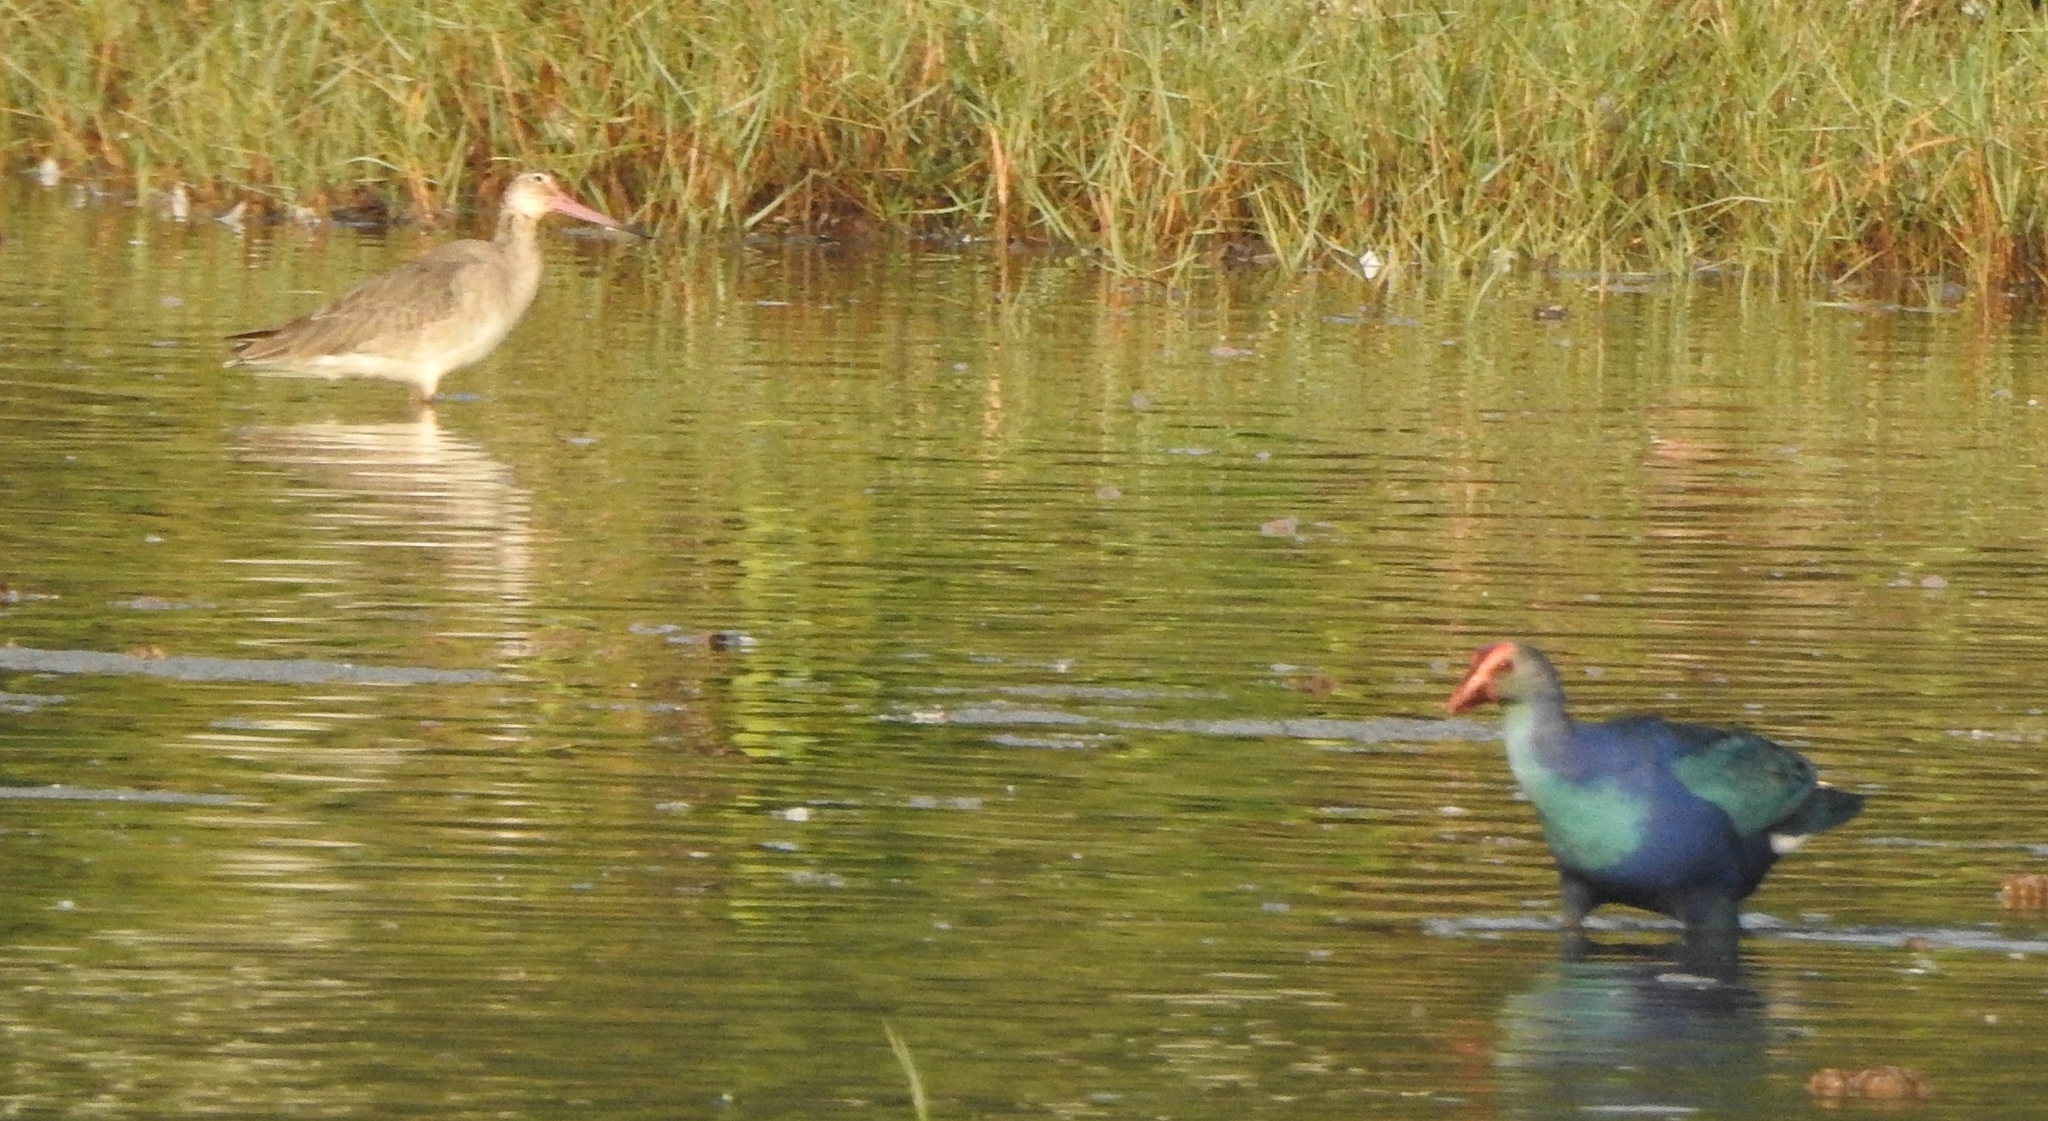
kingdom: Animalia
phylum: Chordata
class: Aves
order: Charadriiformes
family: Scolopacidae
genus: Limosa
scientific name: Limosa limosa
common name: Black-tailed godwit
